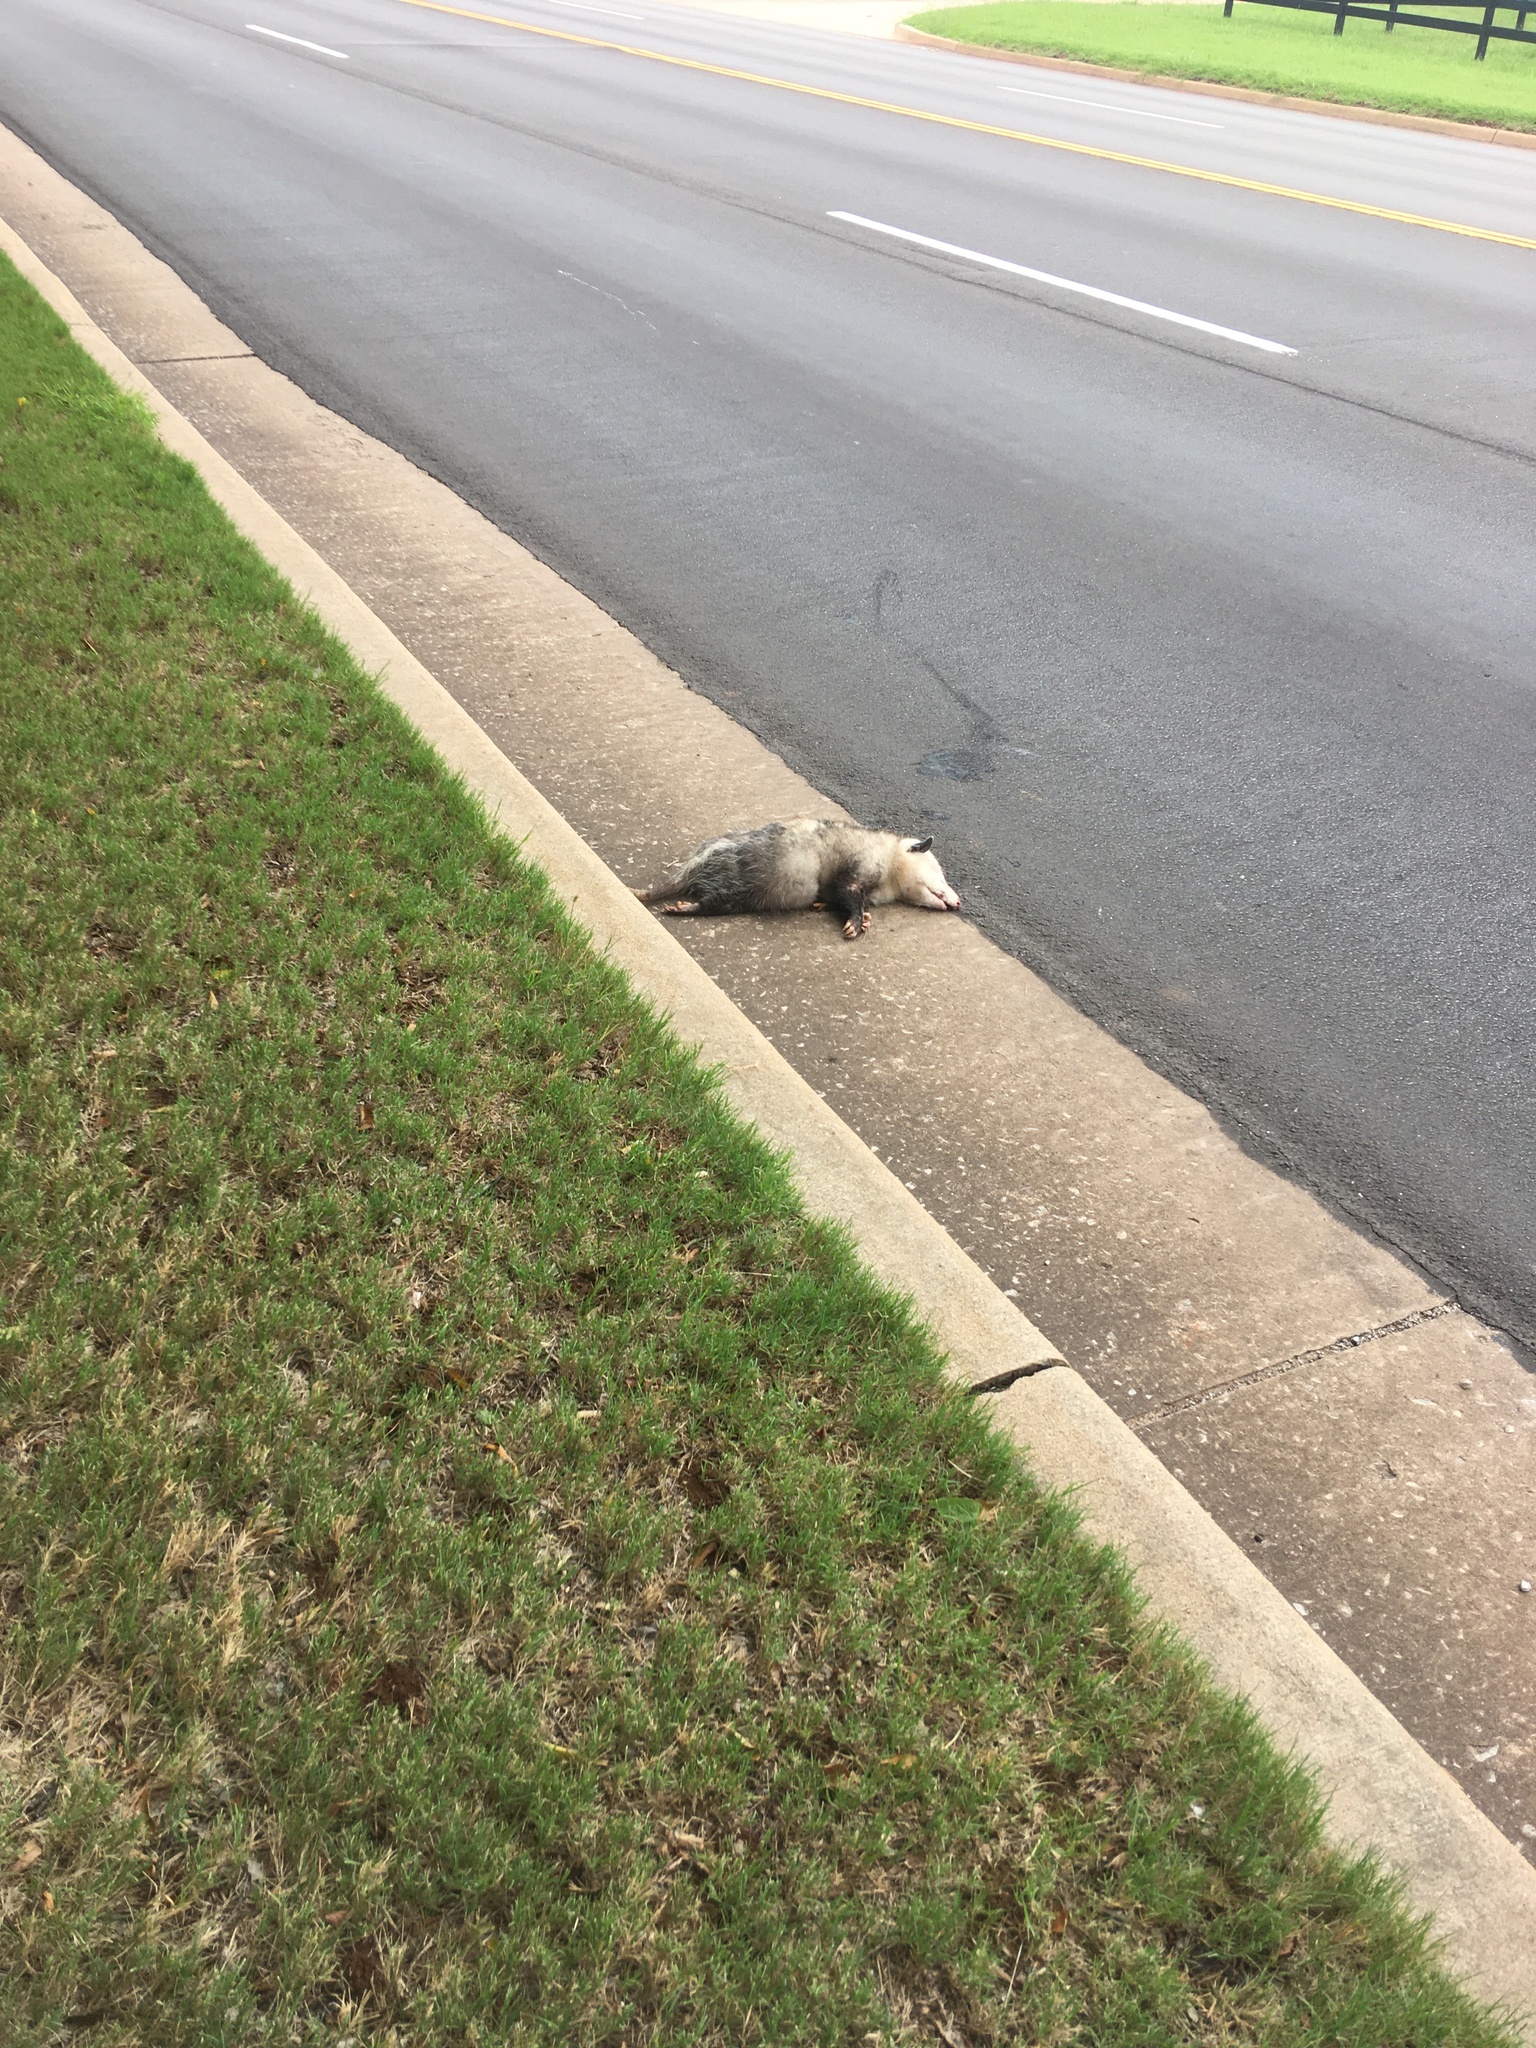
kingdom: Animalia
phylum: Chordata
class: Mammalia
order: Didelphimorphia
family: Didelphidae
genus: Didelphis
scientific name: Didelphis virginiana
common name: Virginia opossum
